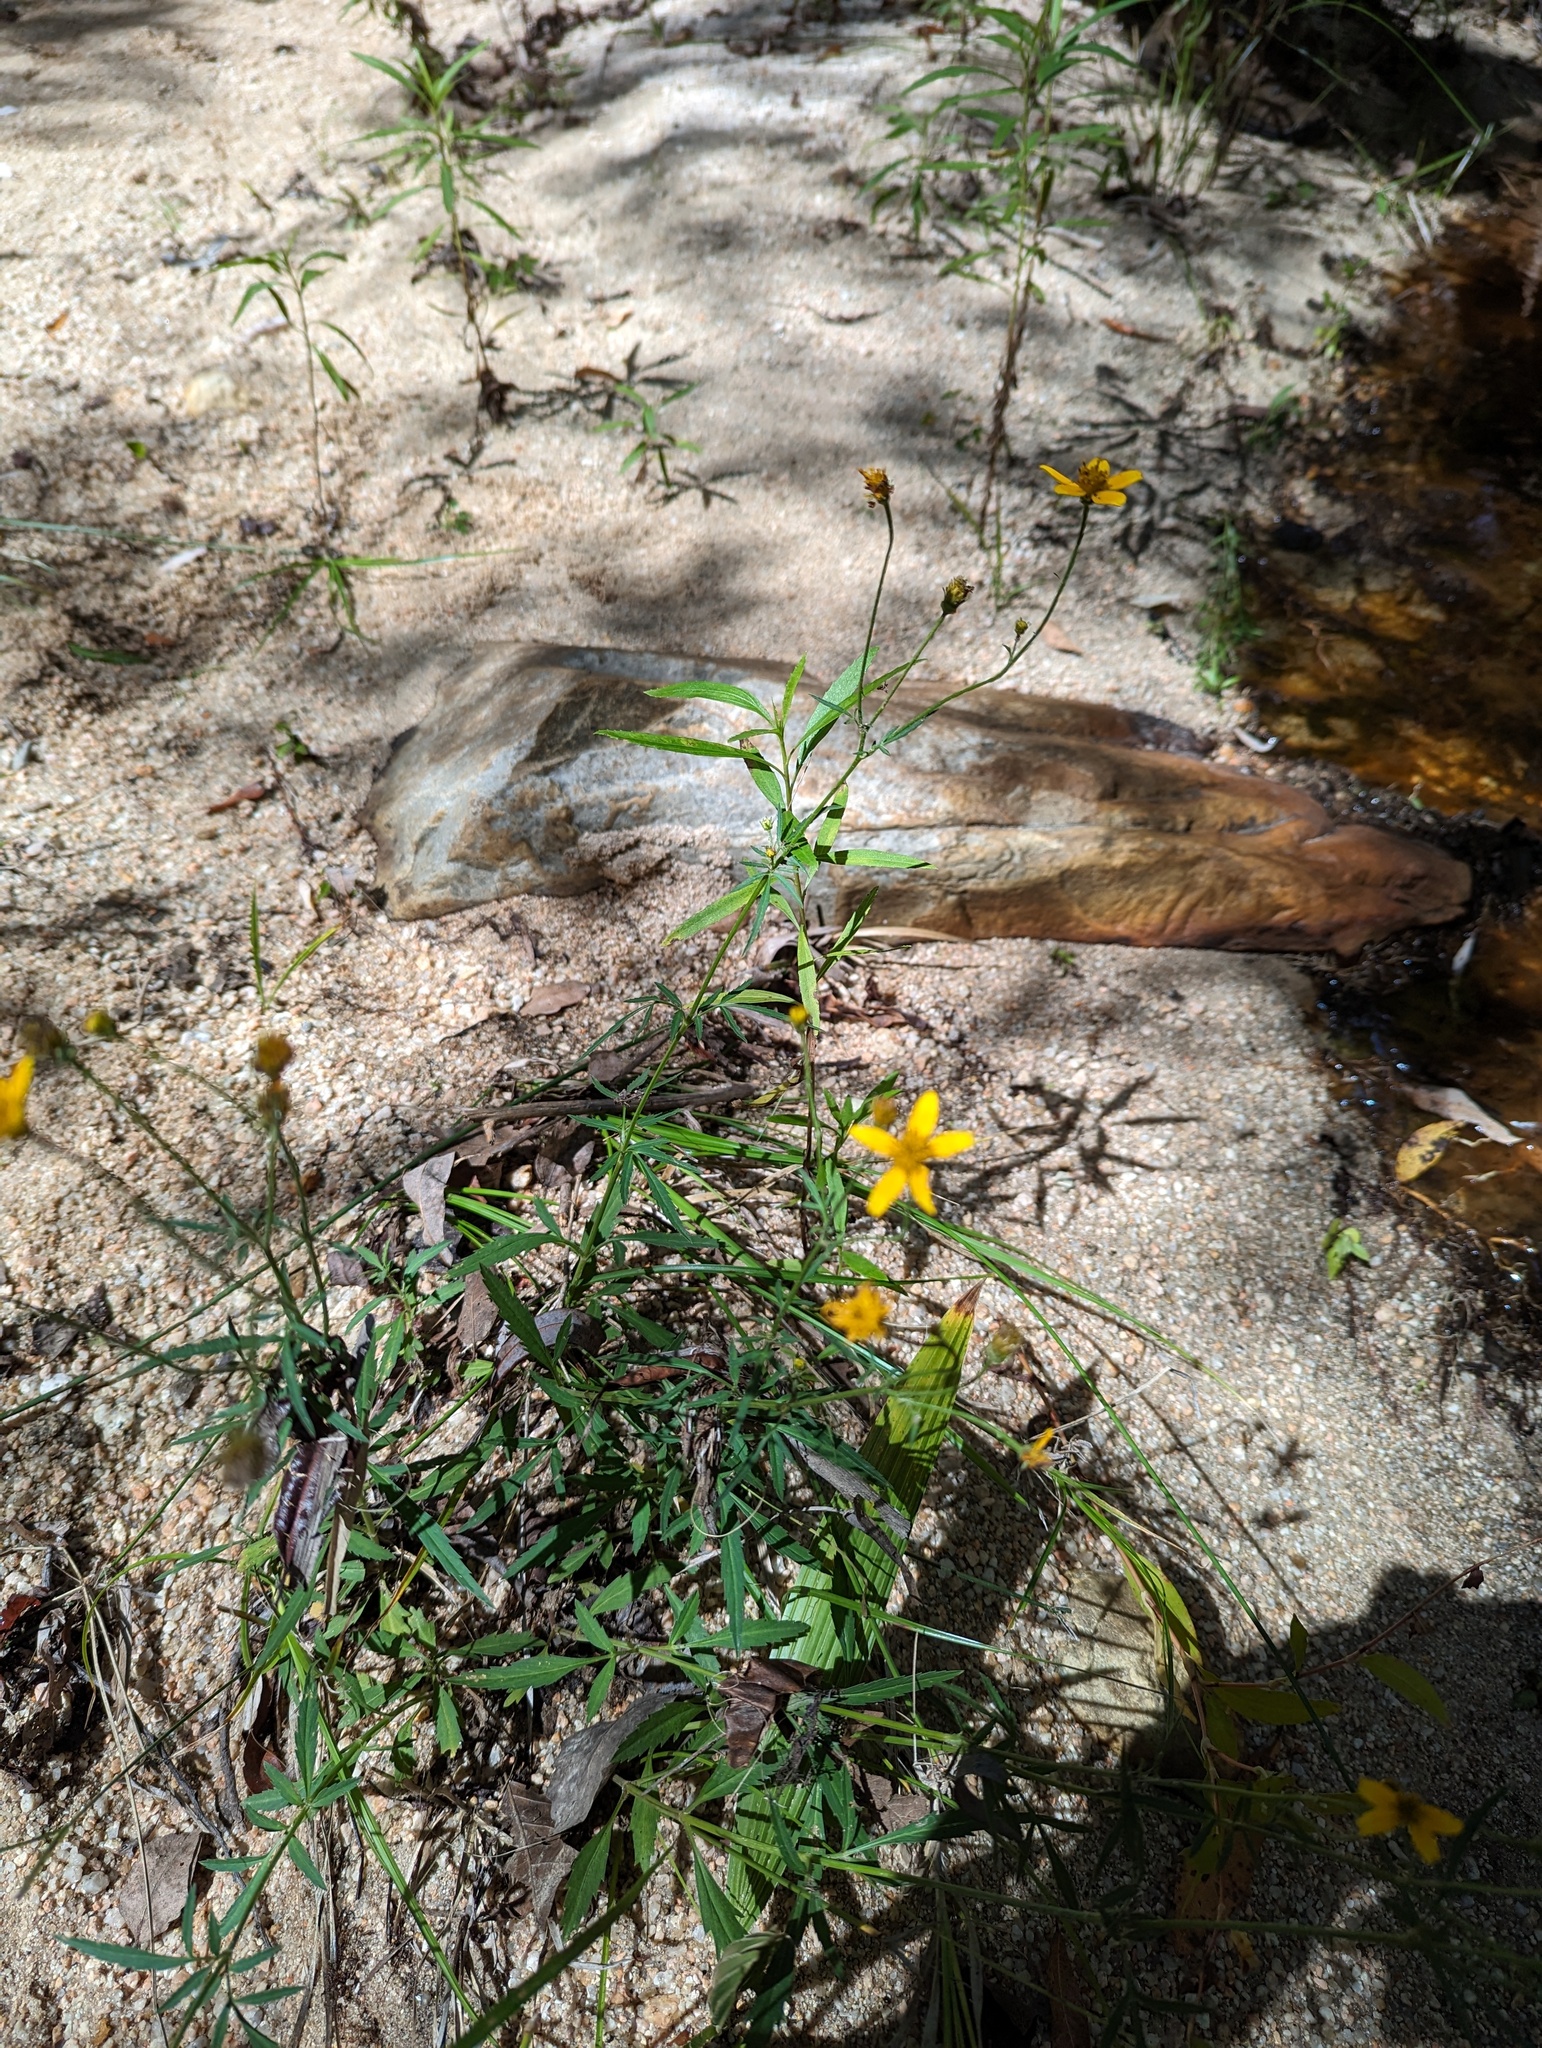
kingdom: Plantae
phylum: Tracheophyta
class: Magnoliopsida
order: Asterales
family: Asteraceae
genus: Bidens
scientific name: Bidens aurea
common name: Arizona beggar-ticks
